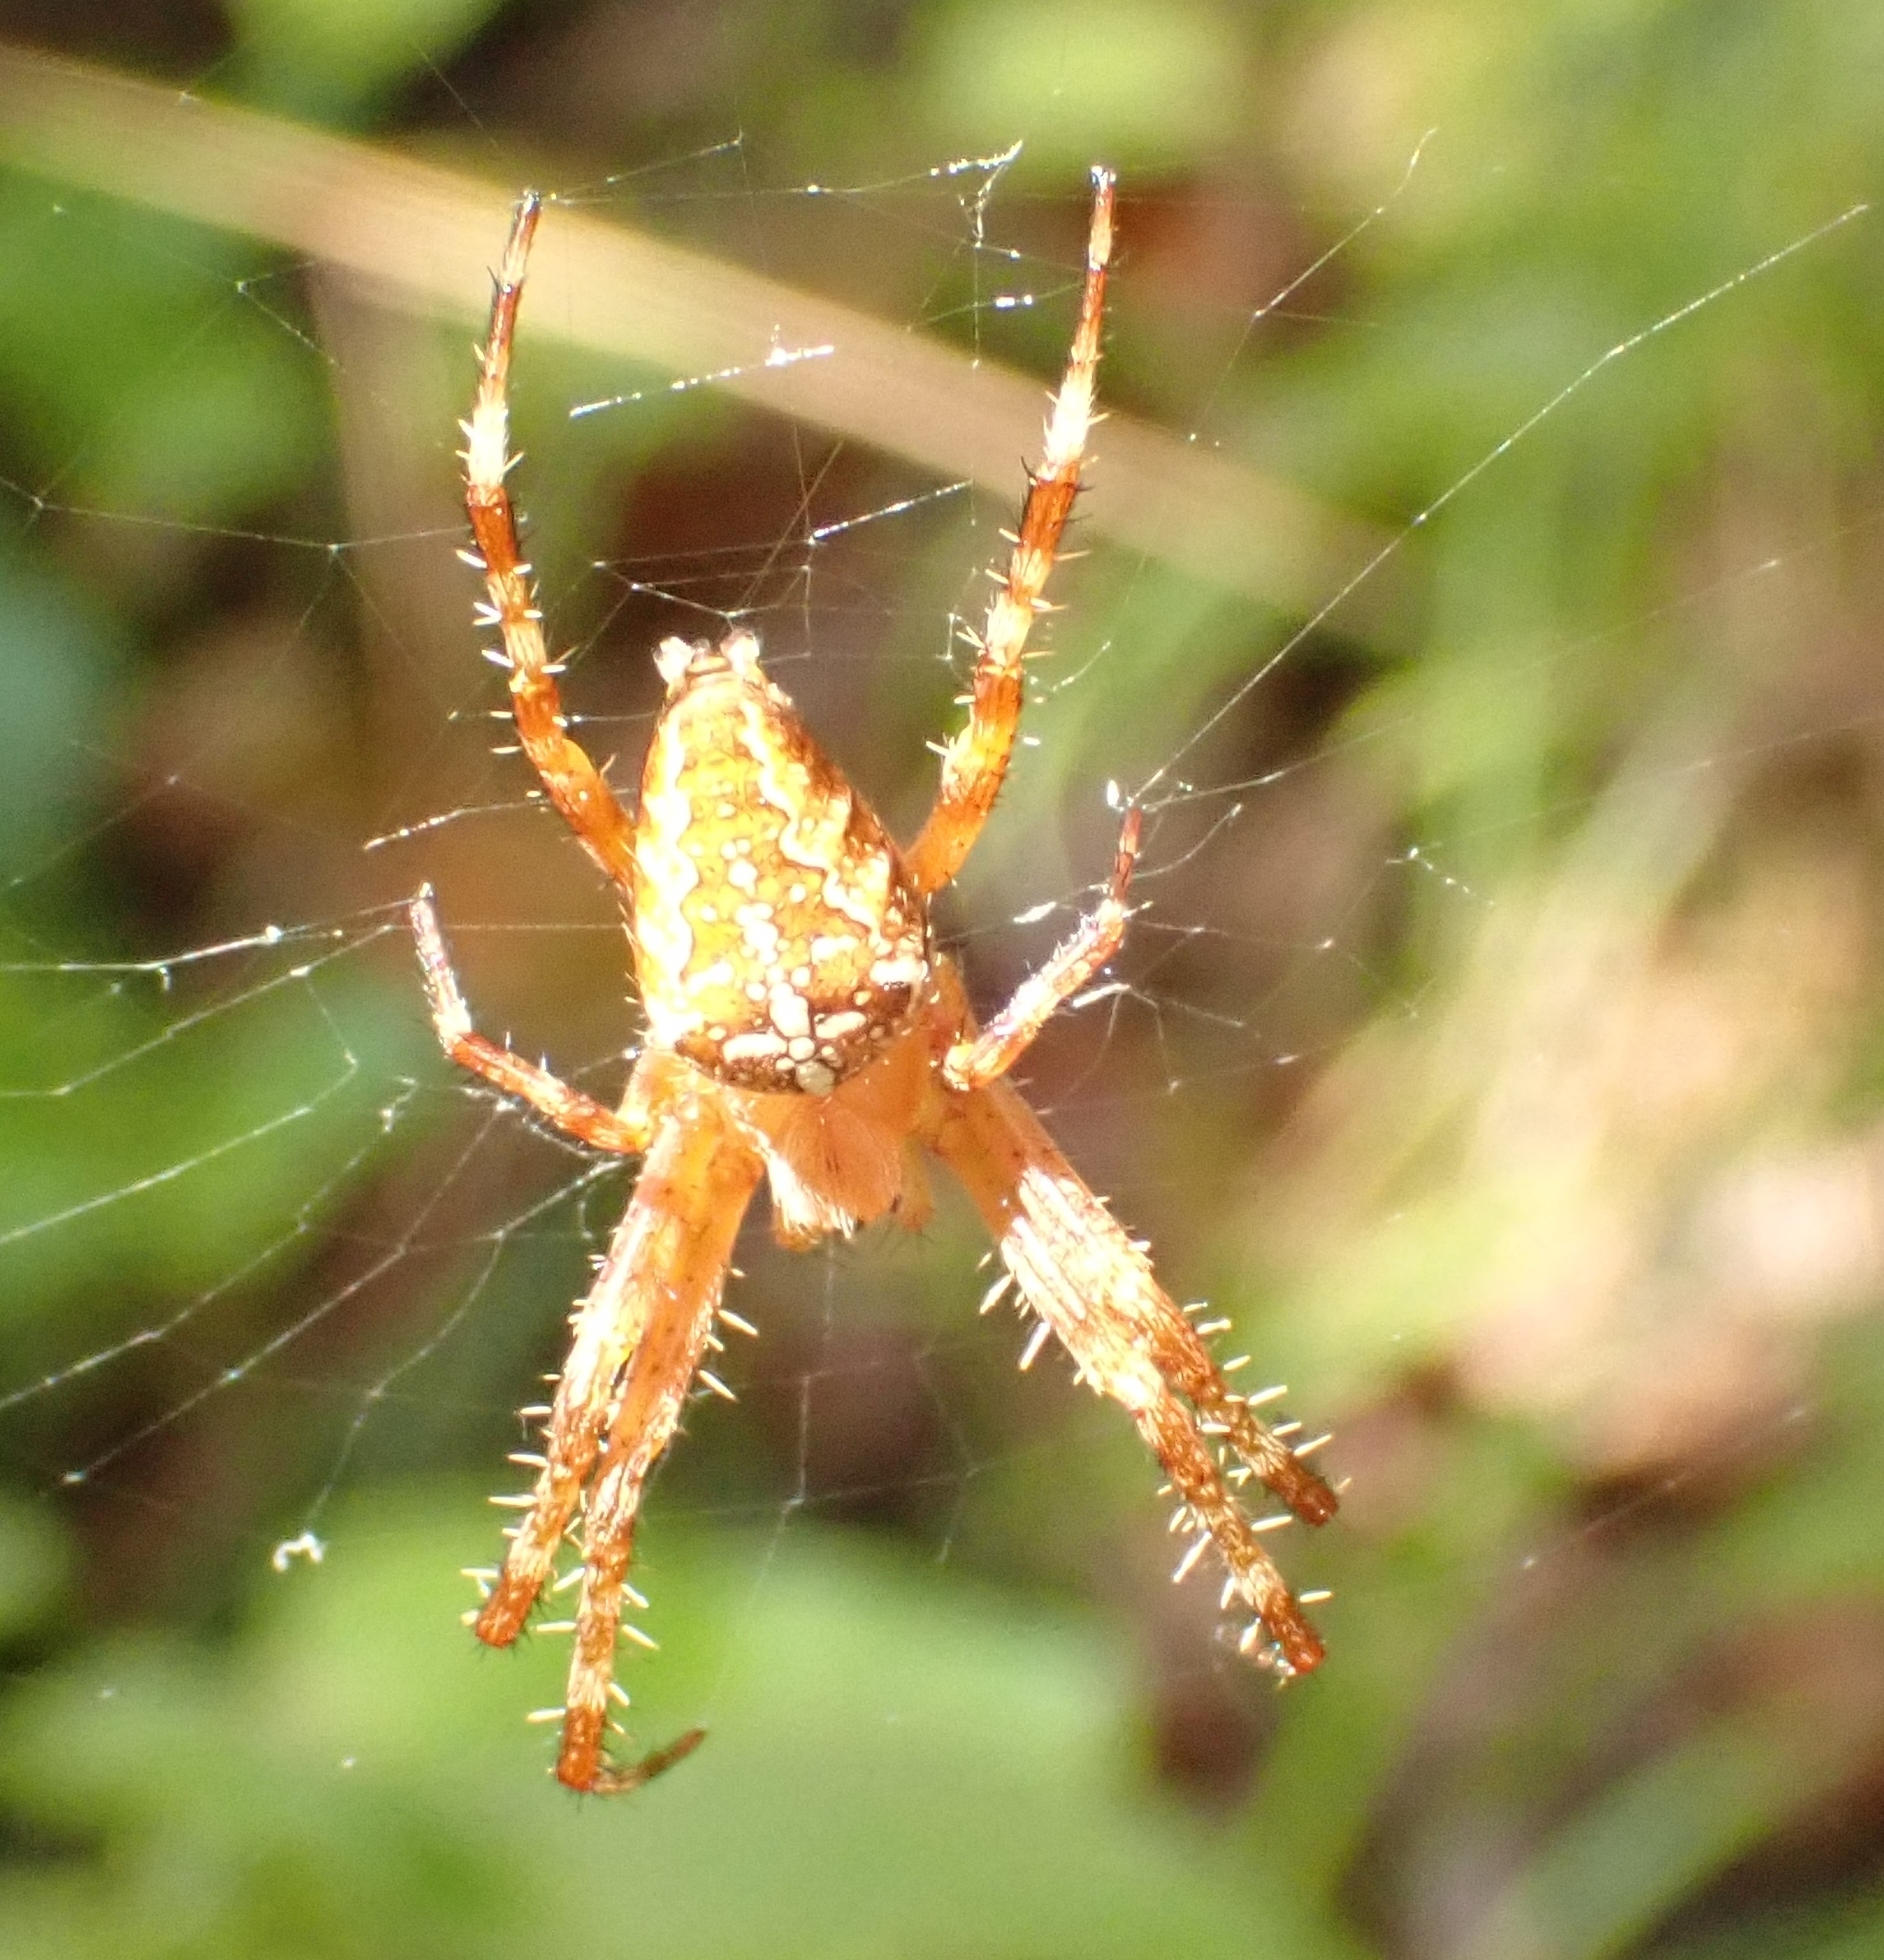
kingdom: Animalia
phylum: Arthropoda
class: Arachnida
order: Araneae
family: Araneidae
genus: Araneus
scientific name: Araneus diadematus
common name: Cross orbweaver
